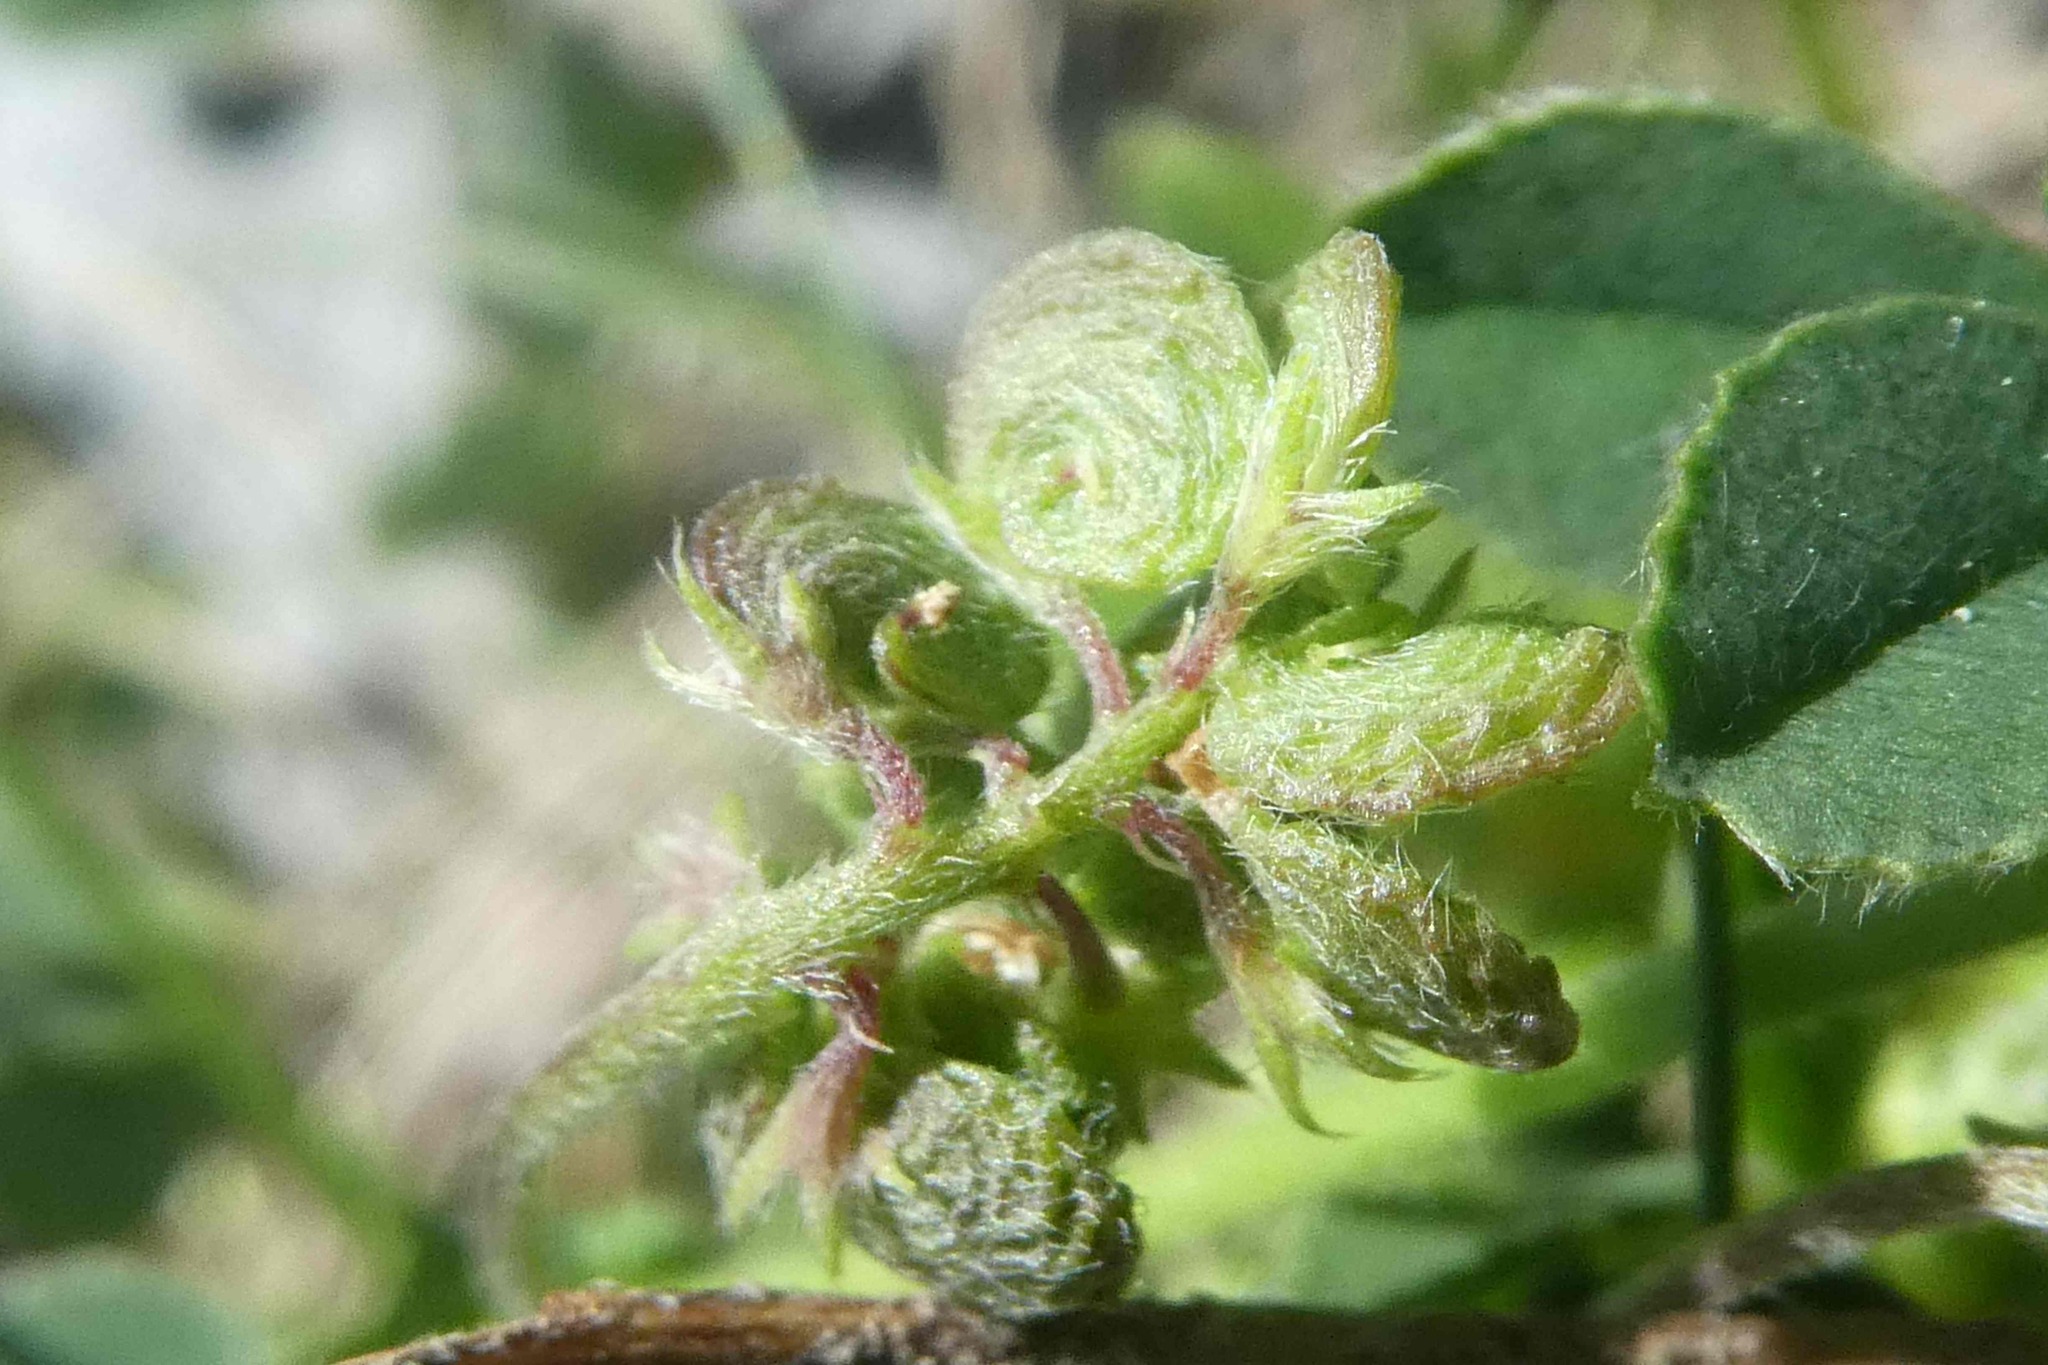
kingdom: Plantae
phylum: Tracheophyta
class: Magnoliopsida
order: Fabales
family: Fabaceae
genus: Medicago
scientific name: Medicago suffruticosa
